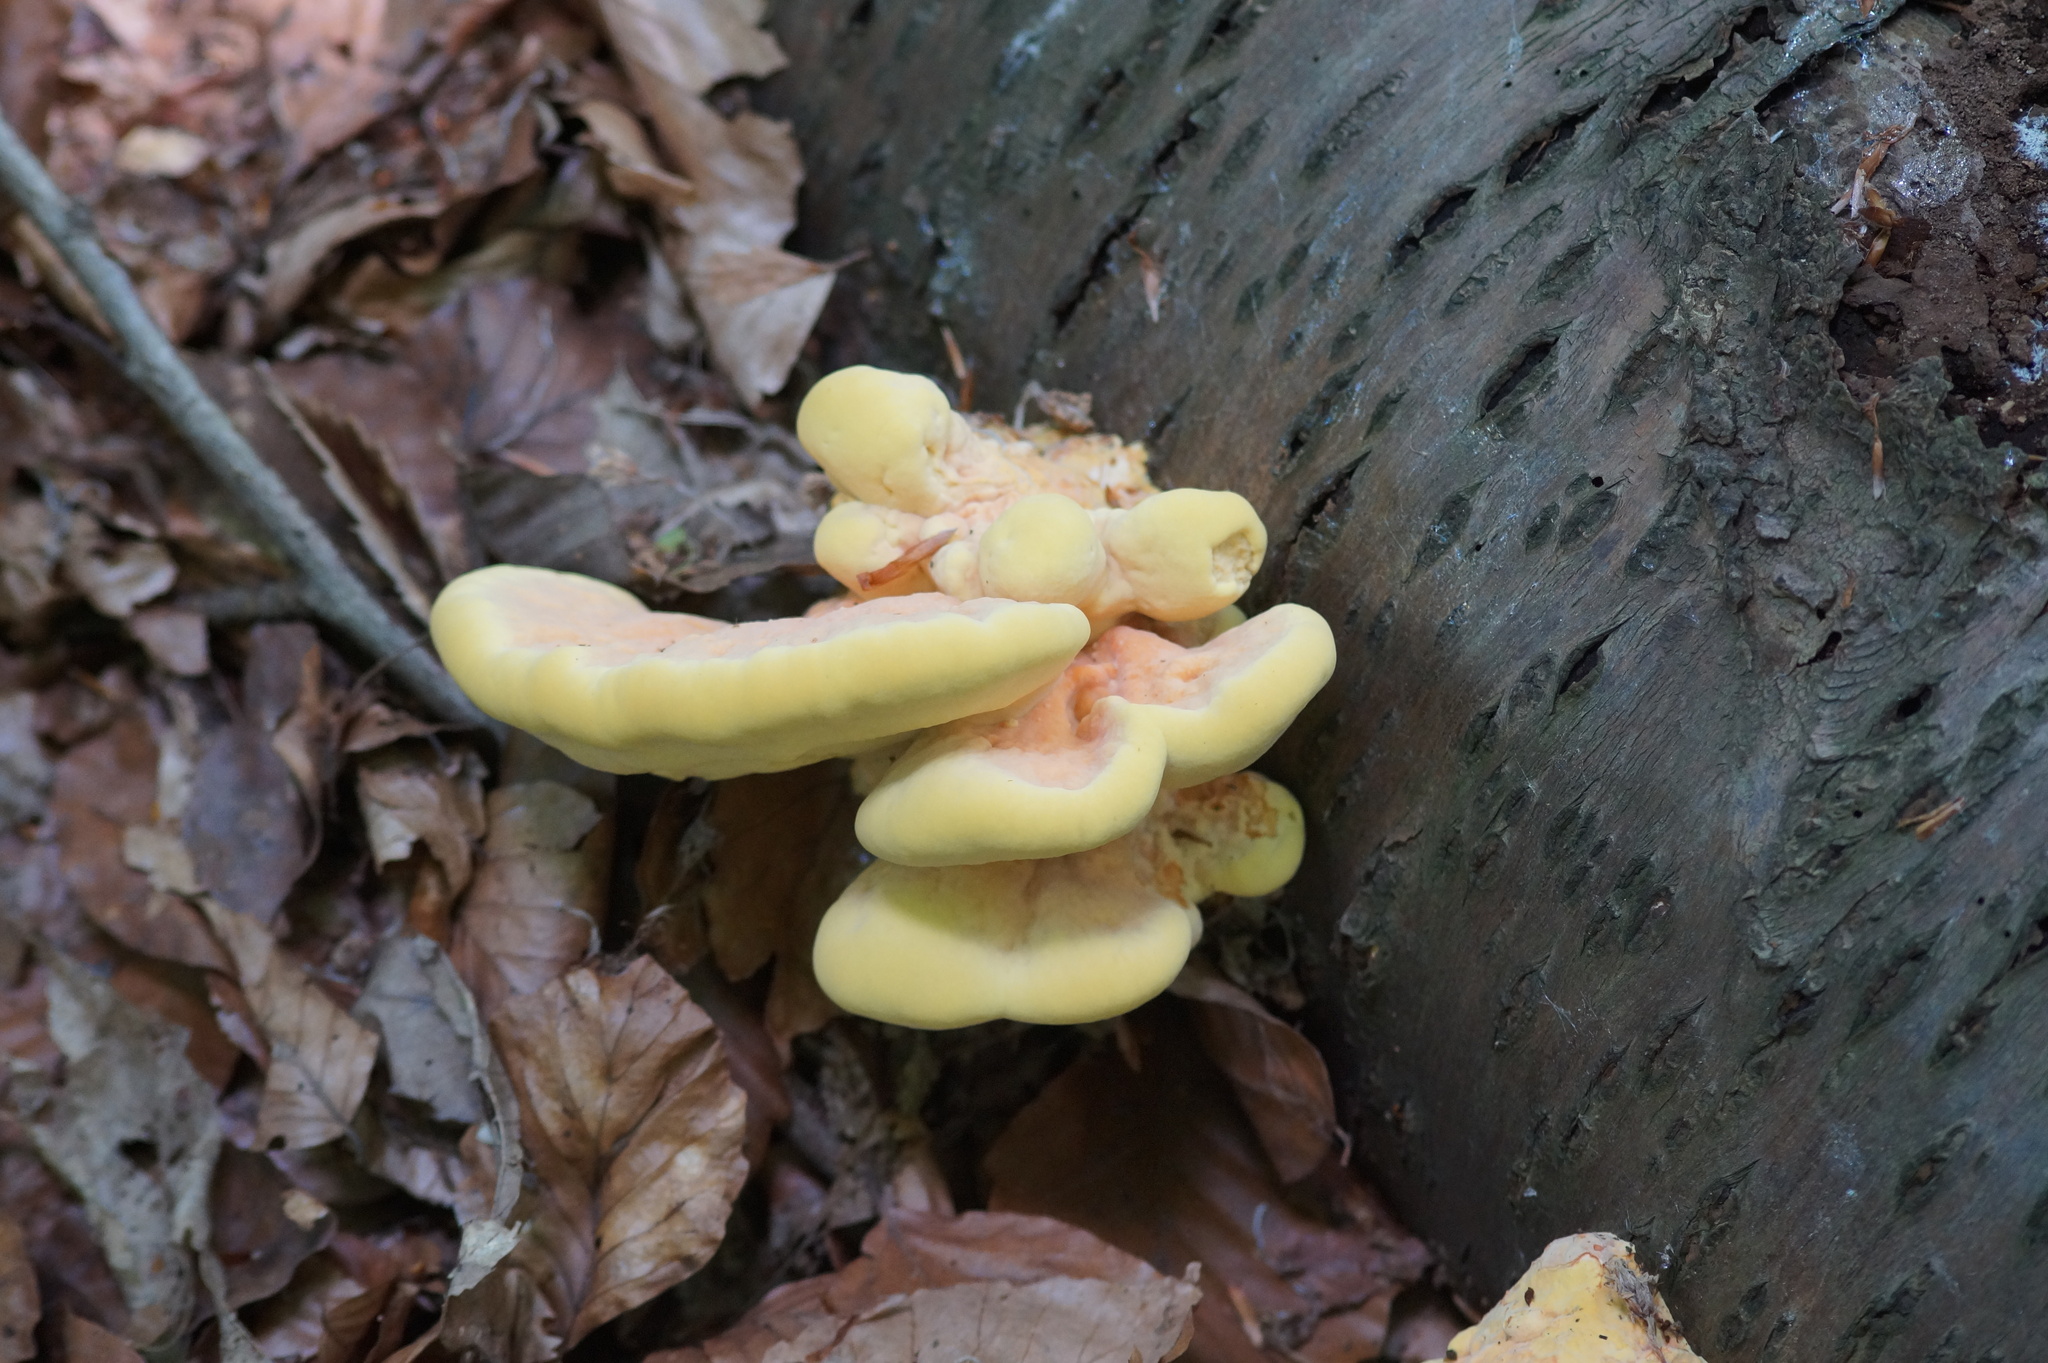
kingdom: Fungi
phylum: Basidiomycota
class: Agaricomycetes
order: Polyporales
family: Laetiporaceae
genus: Laetiporus
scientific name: Laetiporus sulphureus
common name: Chicken of the woods
